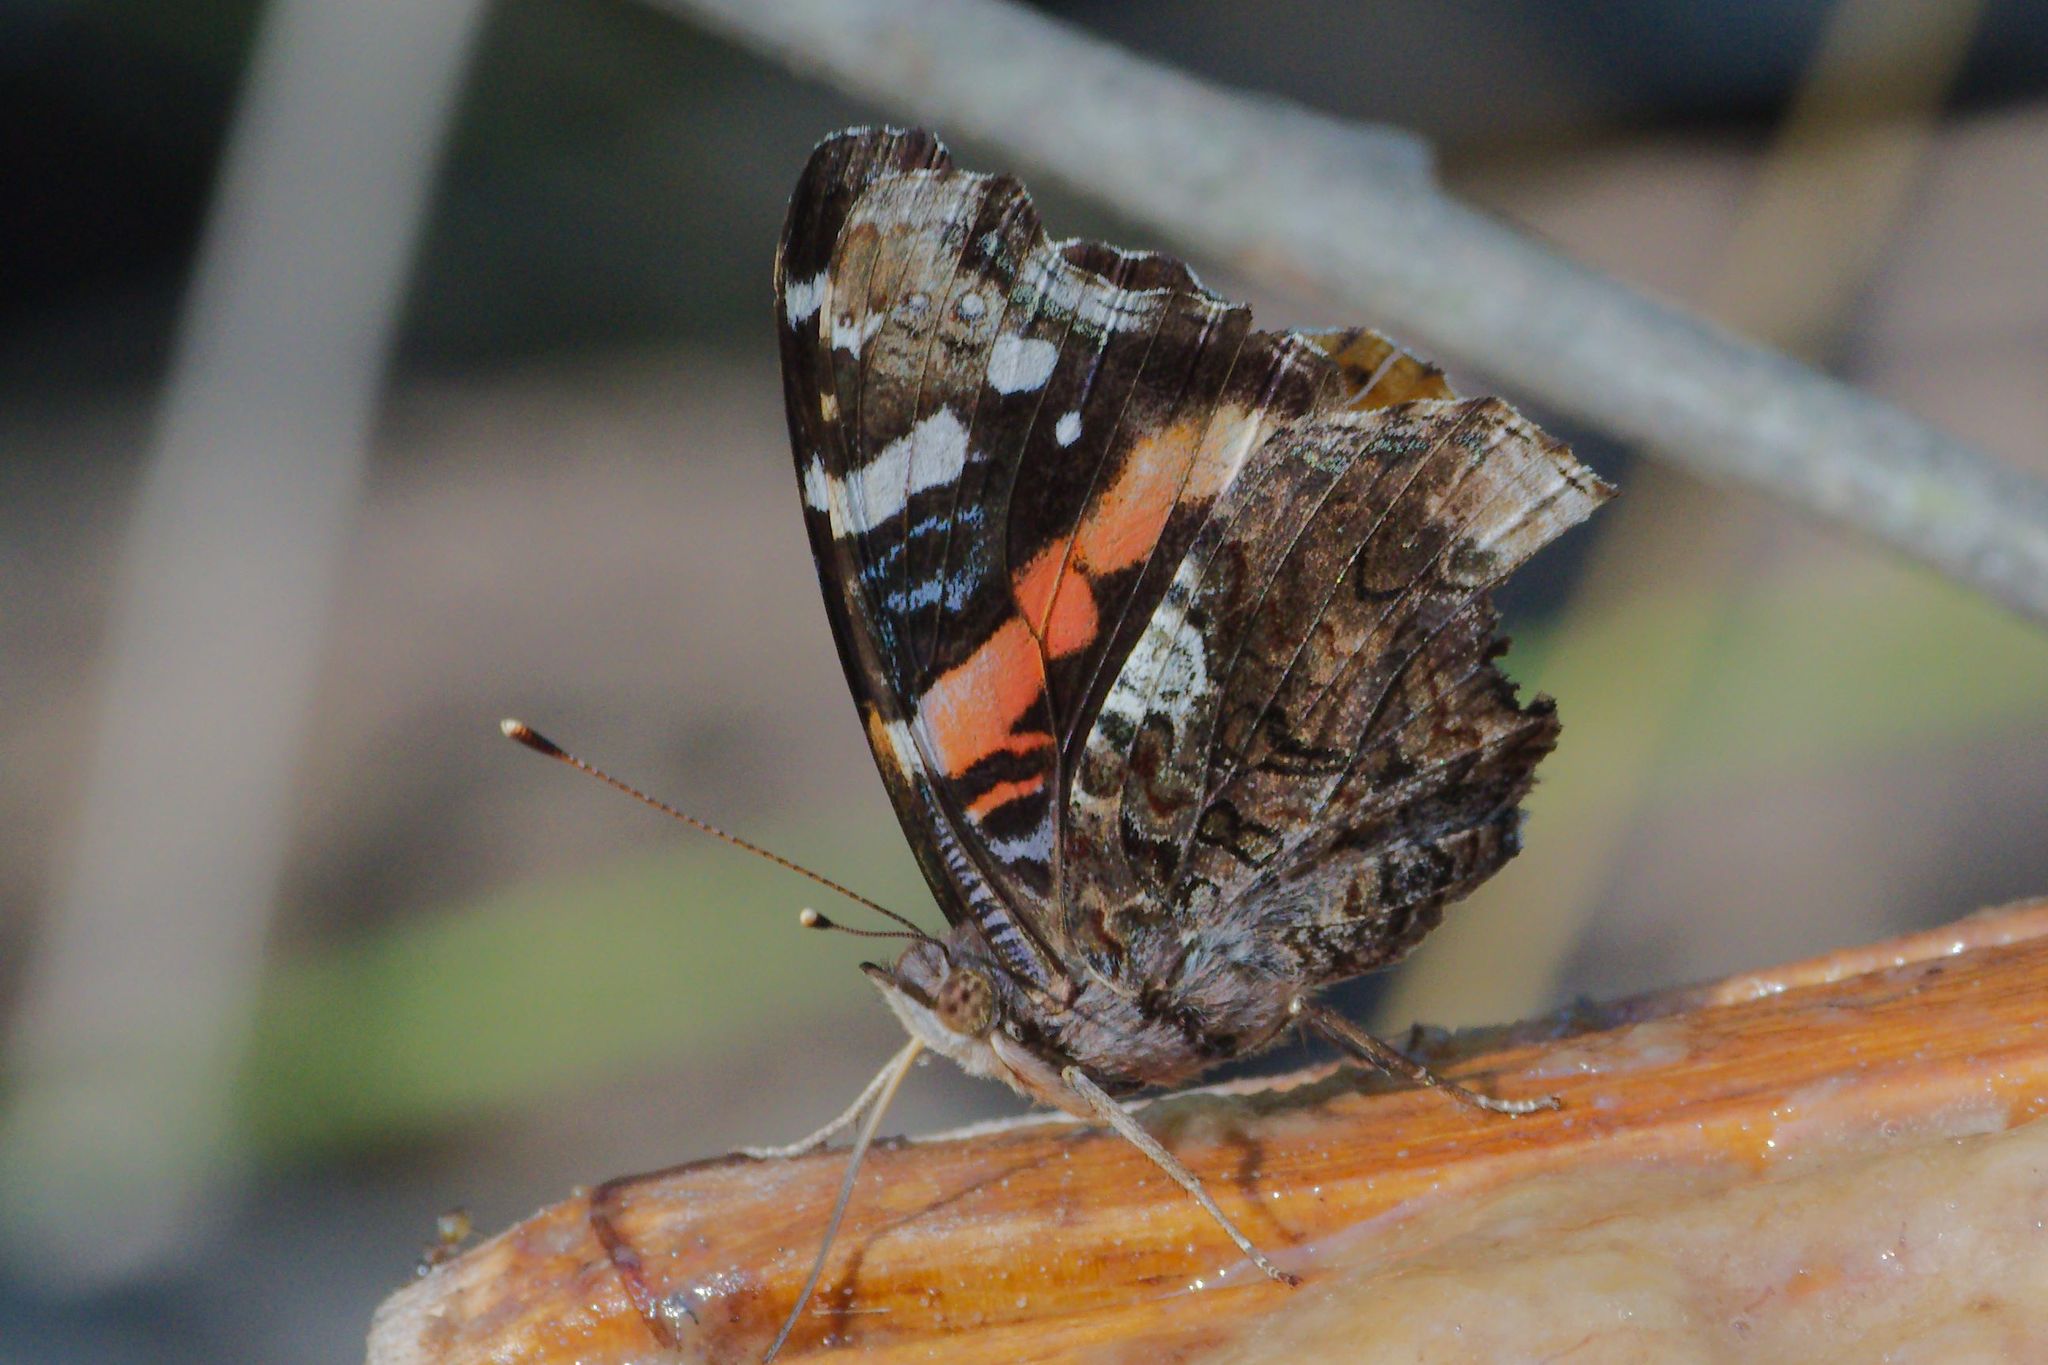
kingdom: Animalia
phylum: Arthropoda
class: Insecta
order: Lepidoptera
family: Nymphalidae
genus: Vanessa
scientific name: Vanessa atalanta
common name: Red admiral
